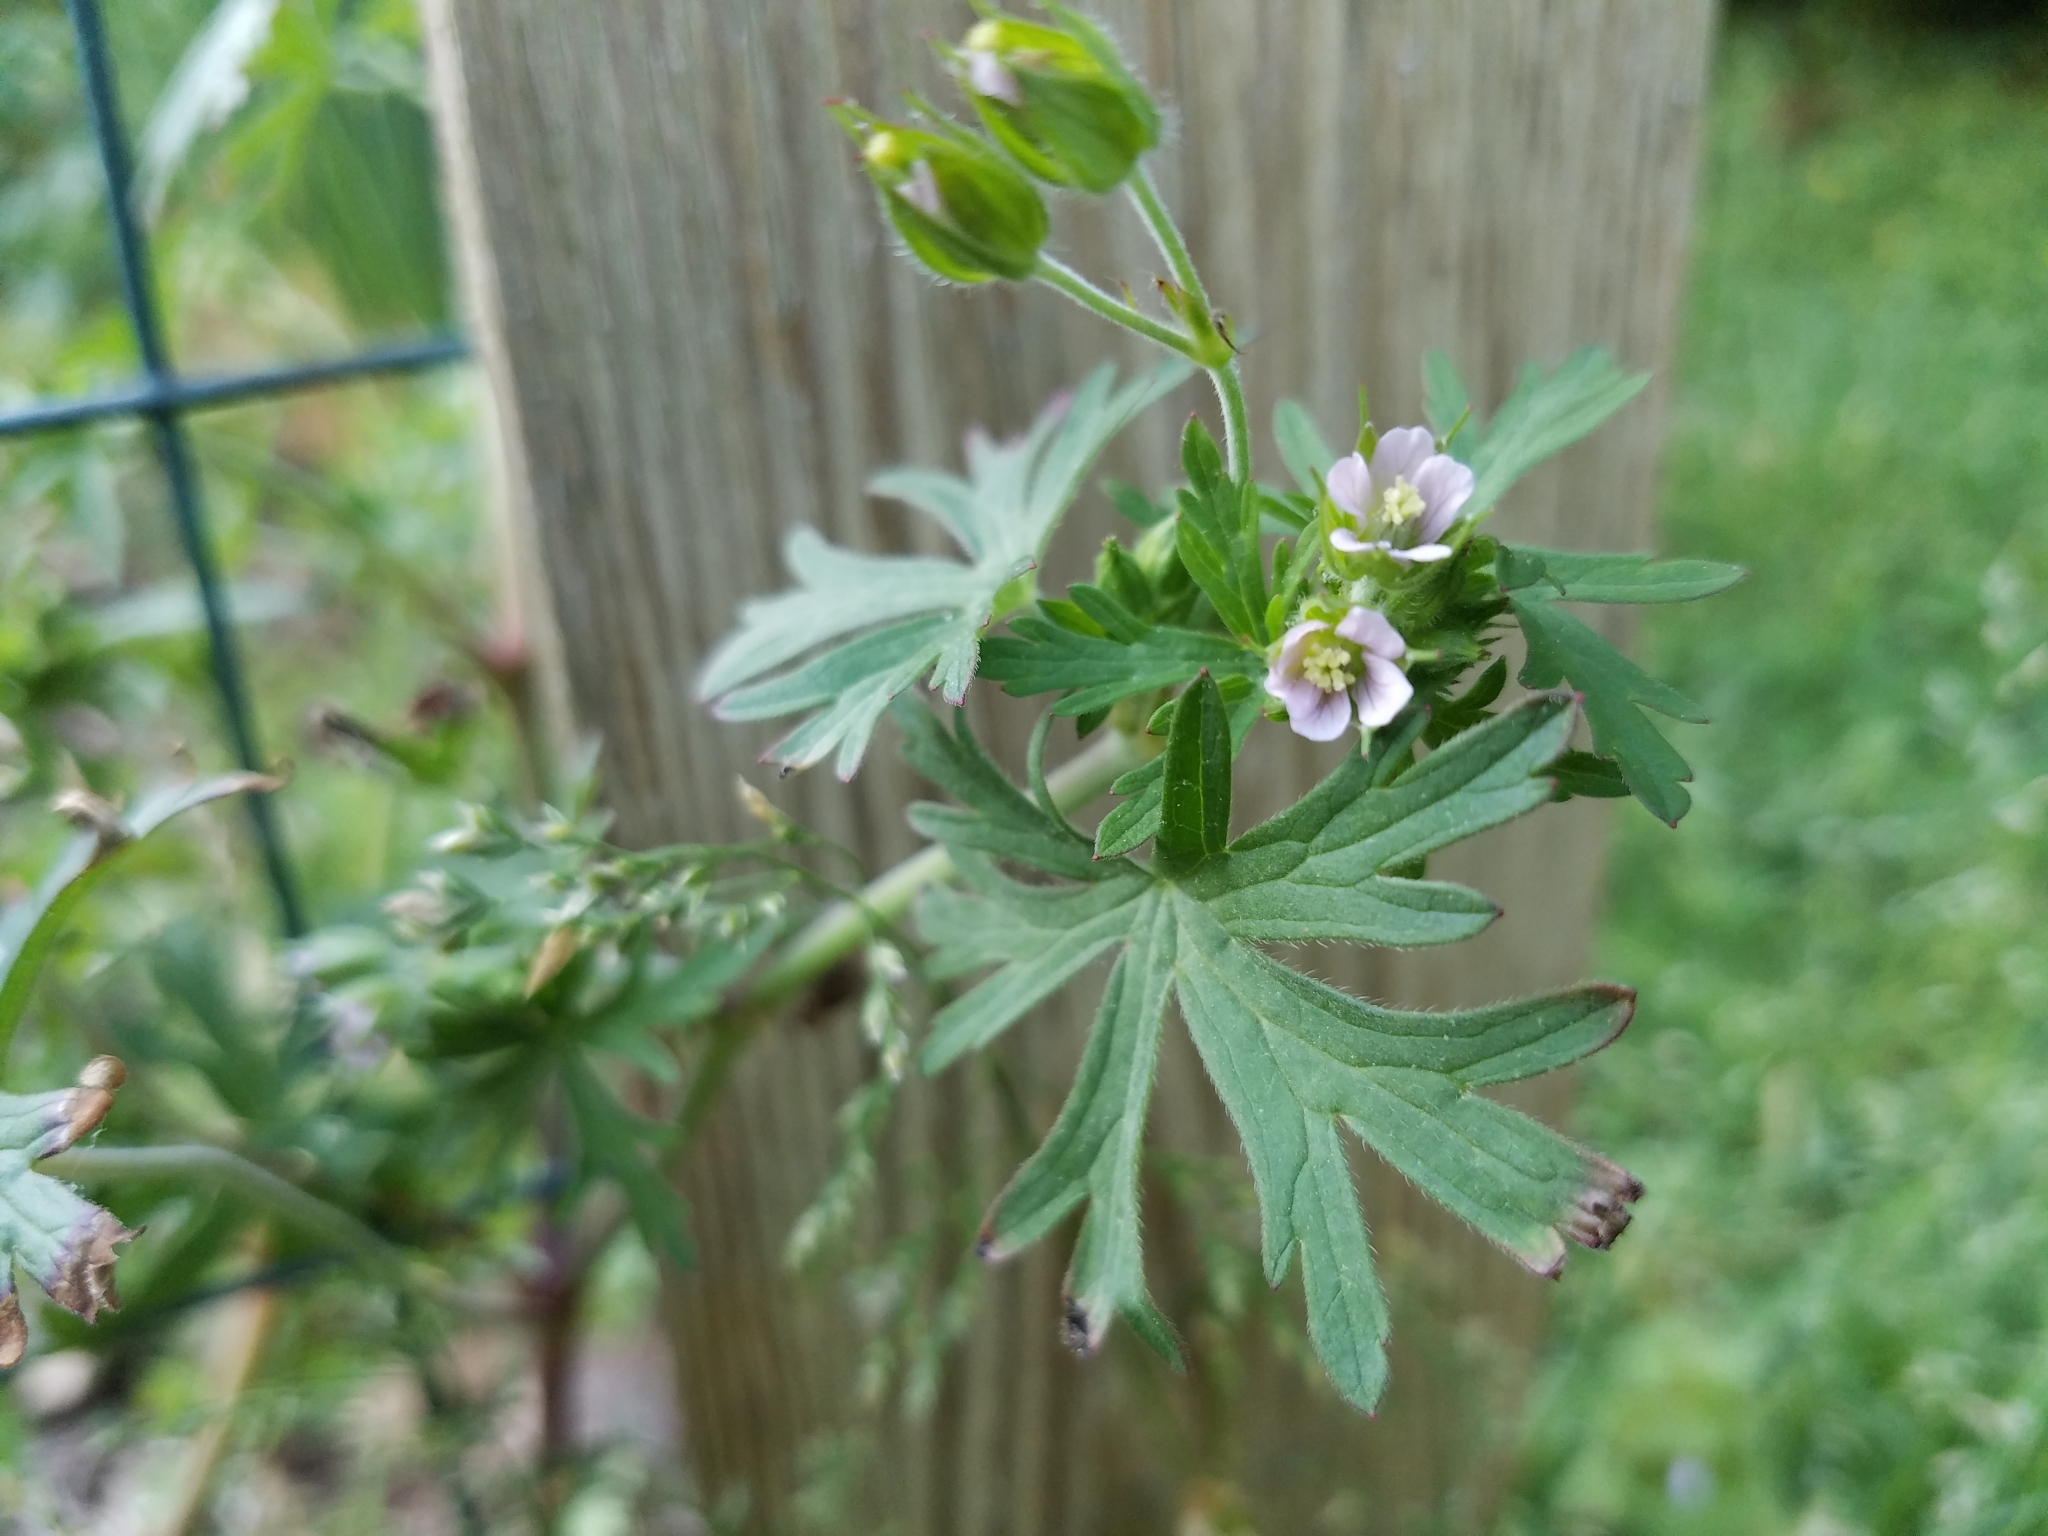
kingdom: Plantae
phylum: Tracheophyta
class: Magnoliopsida
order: Geraniales
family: Geraniaceae
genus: Geranium
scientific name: Geranium carolinianum
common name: Carolina crane's-bill
